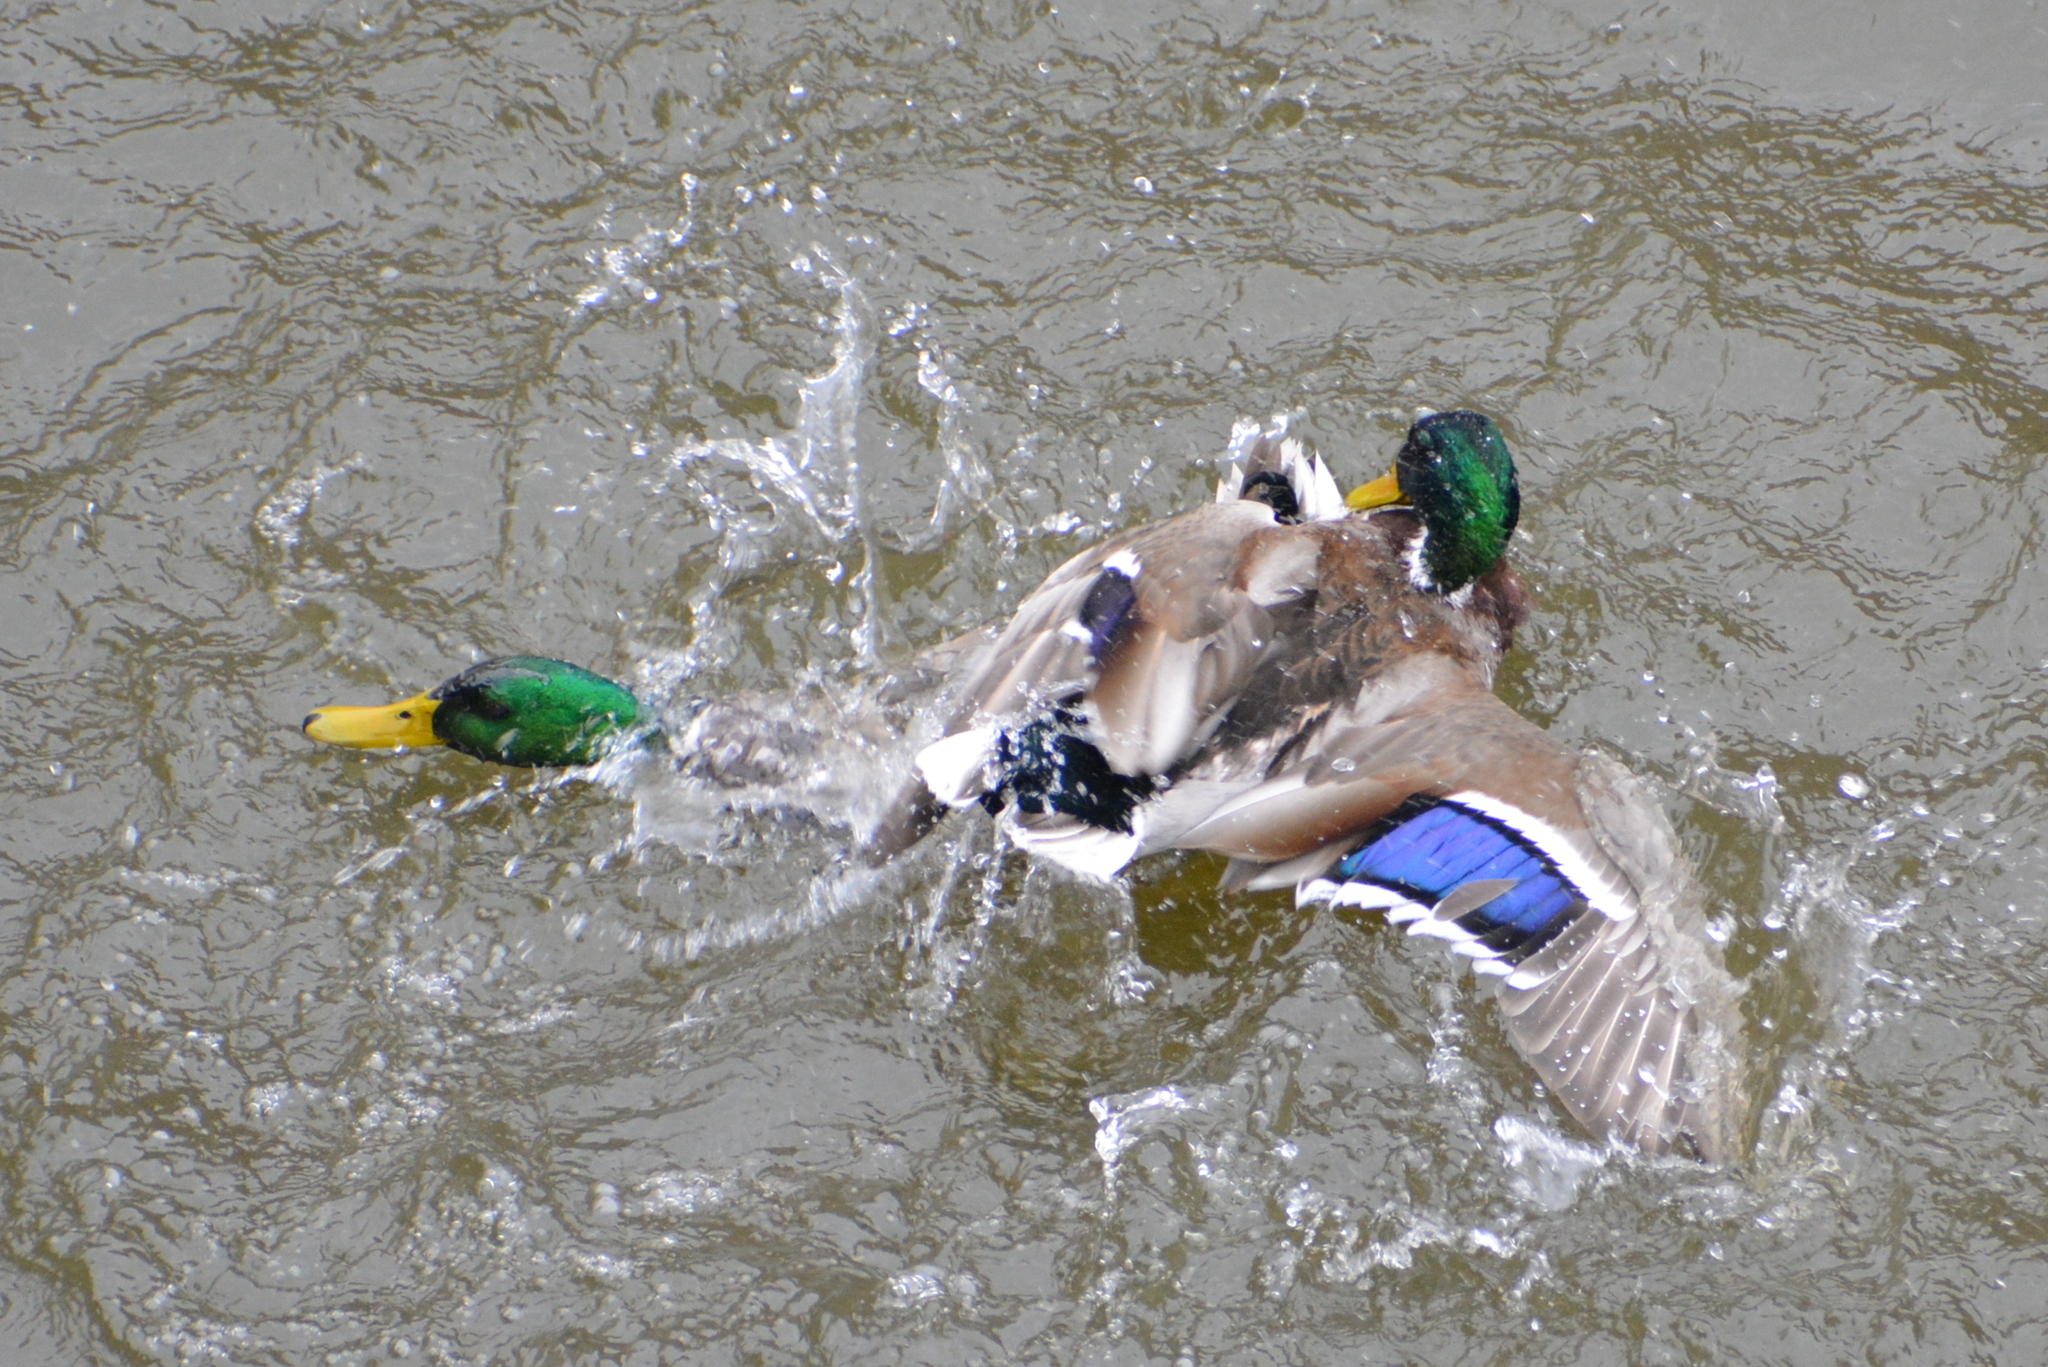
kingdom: Animalia
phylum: Chordata
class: Aves
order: Anseriformes
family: Anatidae
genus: Anas
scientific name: Anas platyrhynchos
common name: Mallard
